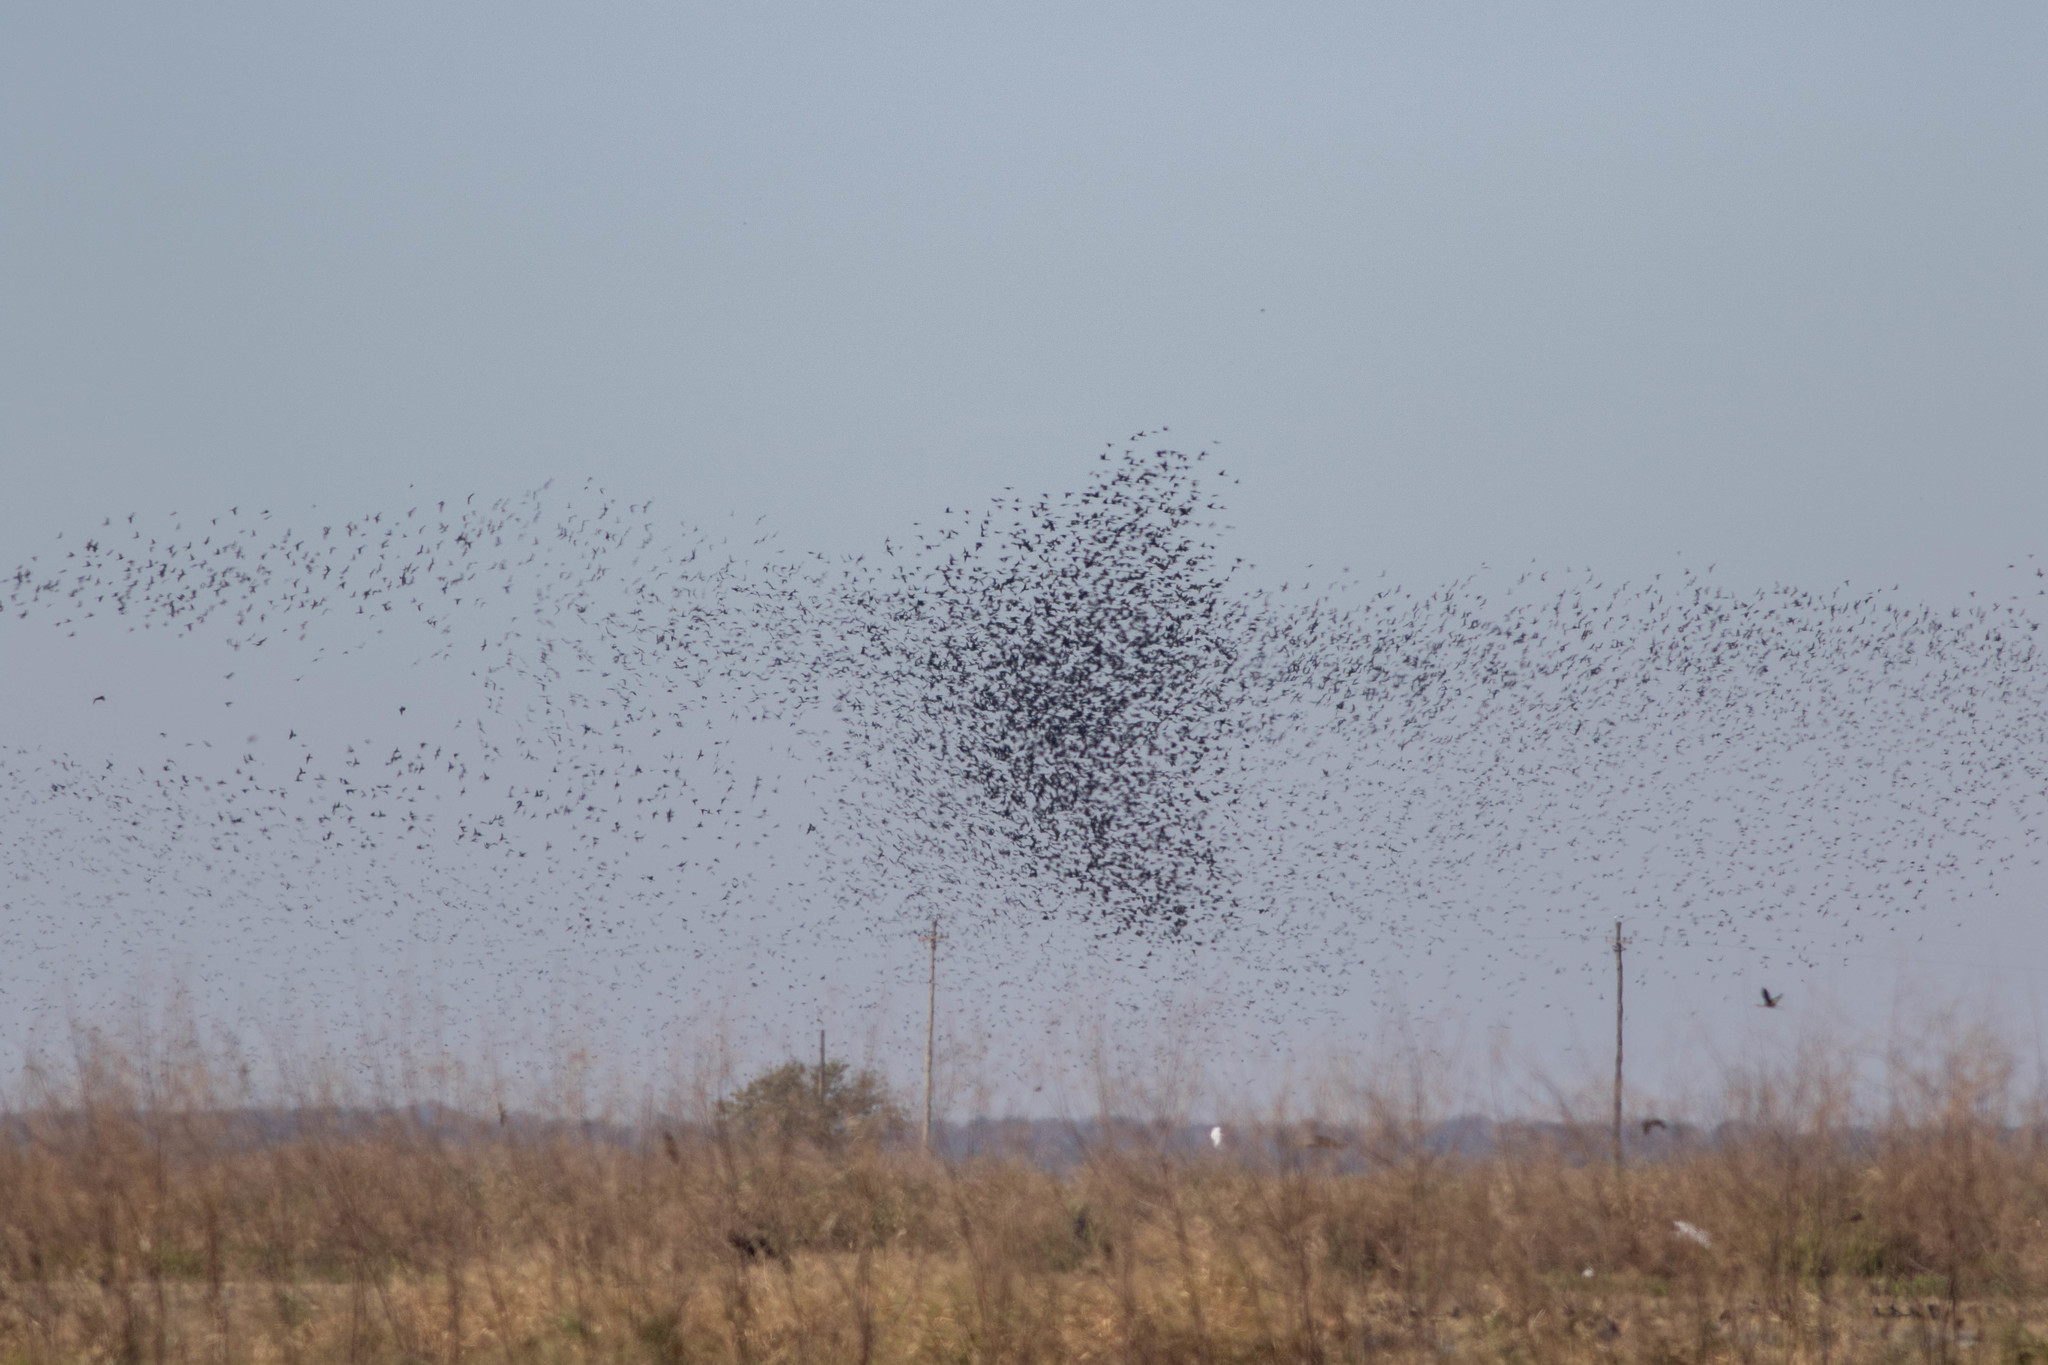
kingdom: Animalia
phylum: Chordata
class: Aves
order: Passeriformes
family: Icteridae
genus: Quiscalus
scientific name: Quiscalus
